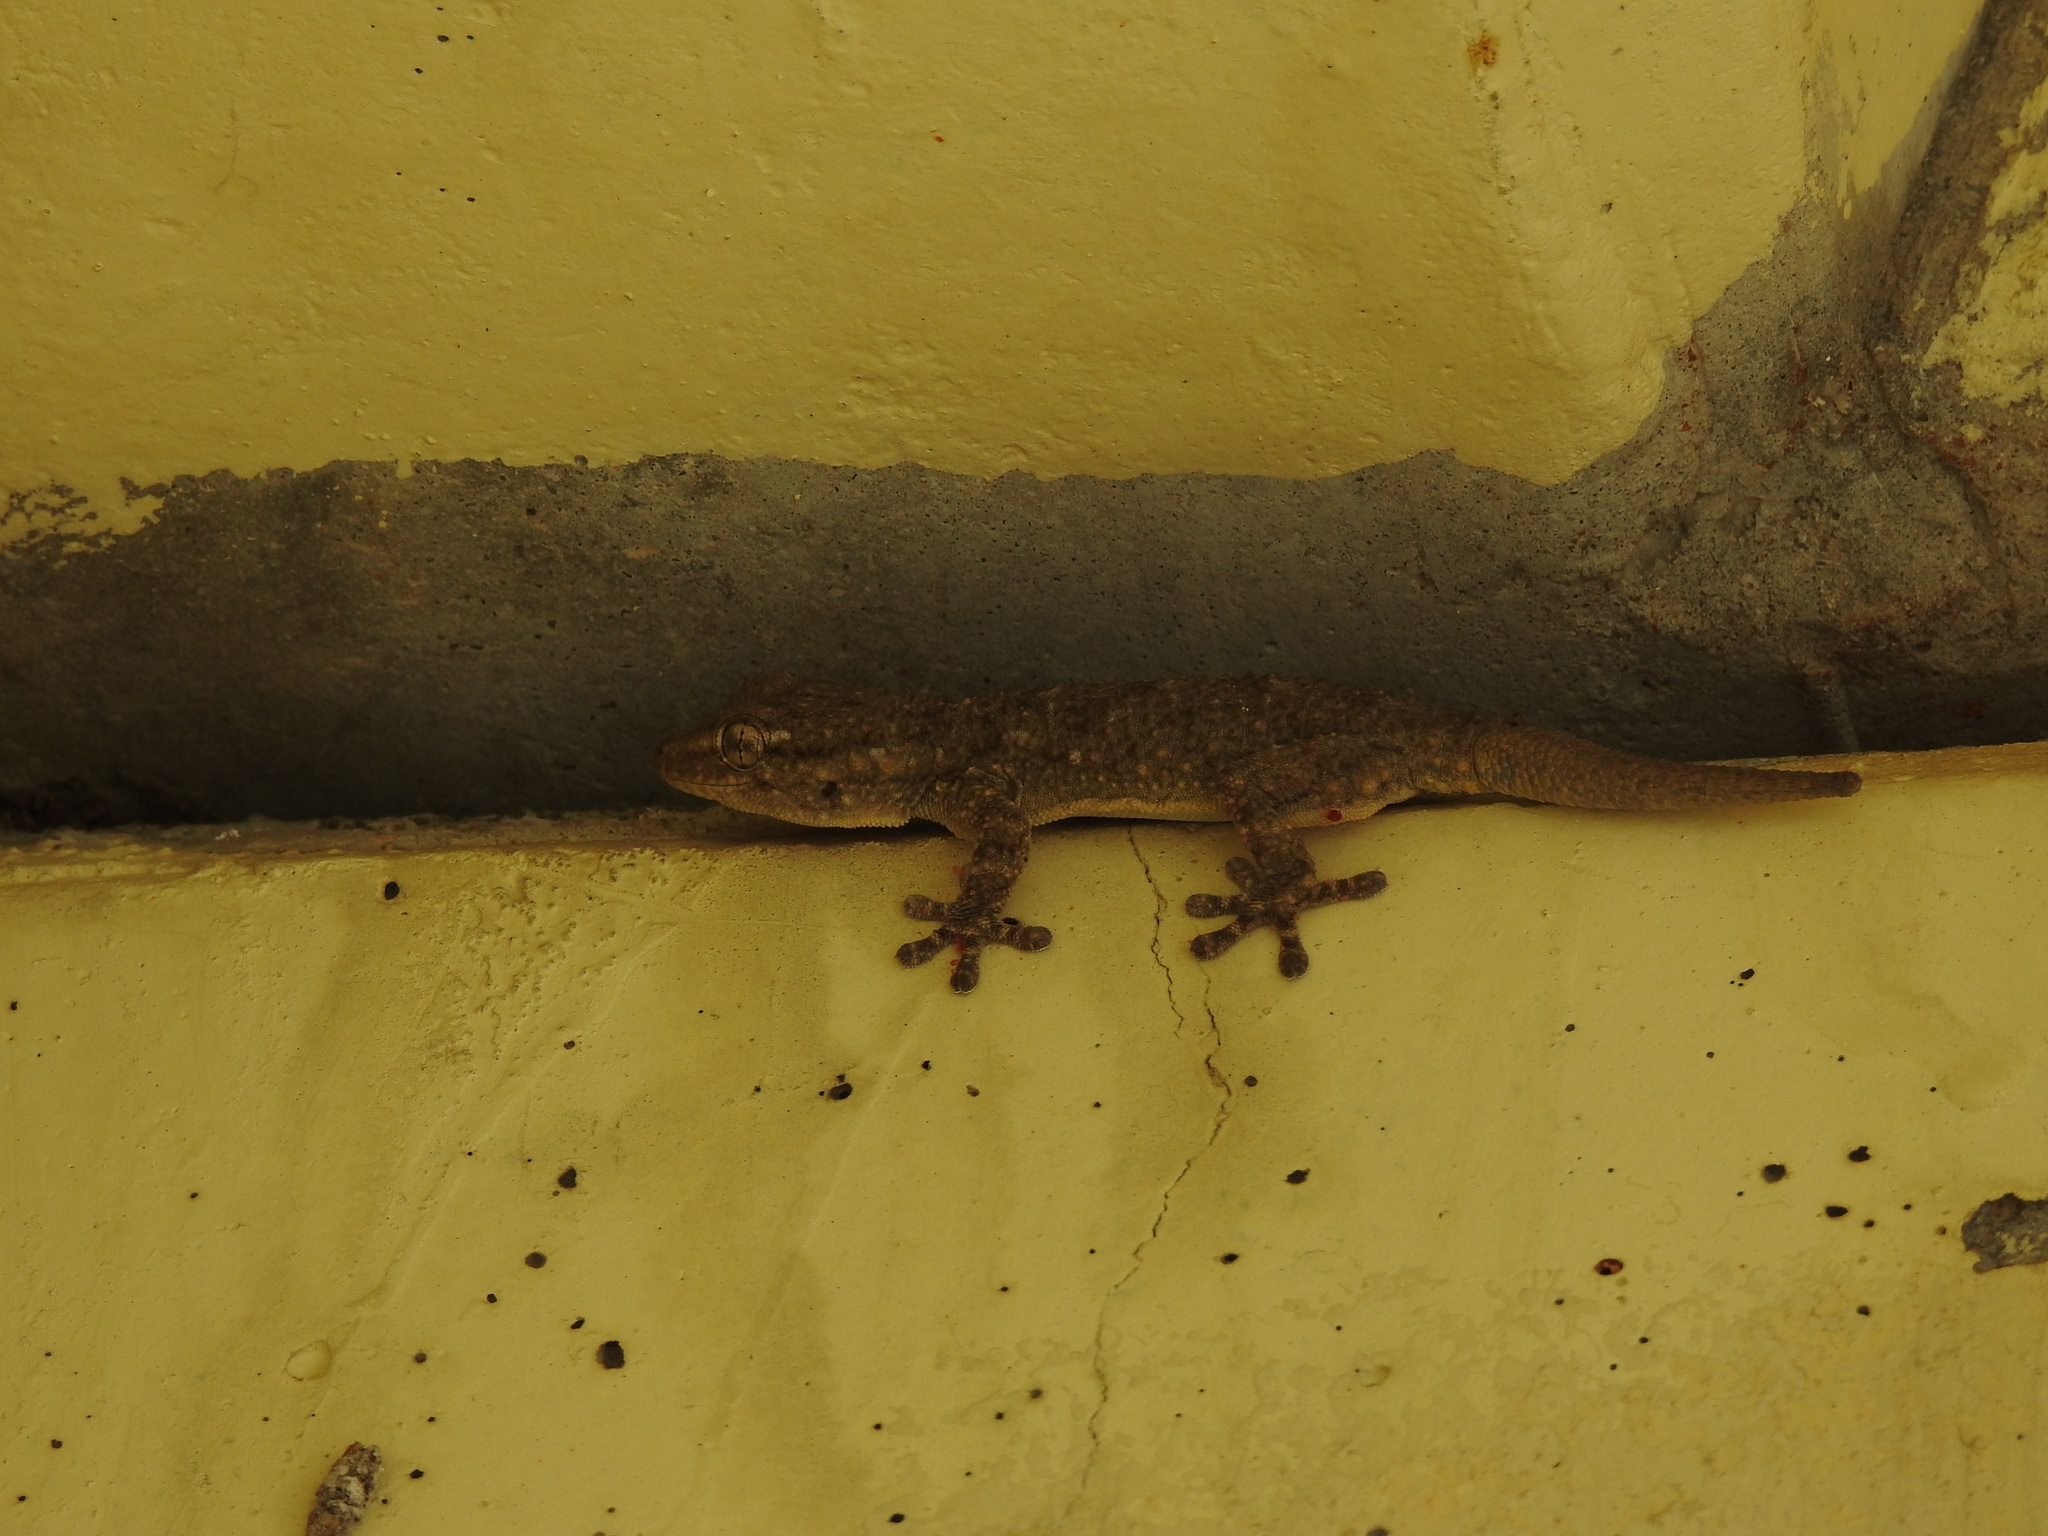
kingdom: Animalia
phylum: Chordata
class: Squamata
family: Phyllodactylidae
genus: Tarentola
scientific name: Tarentola mauritanica
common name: Moorish gecko
